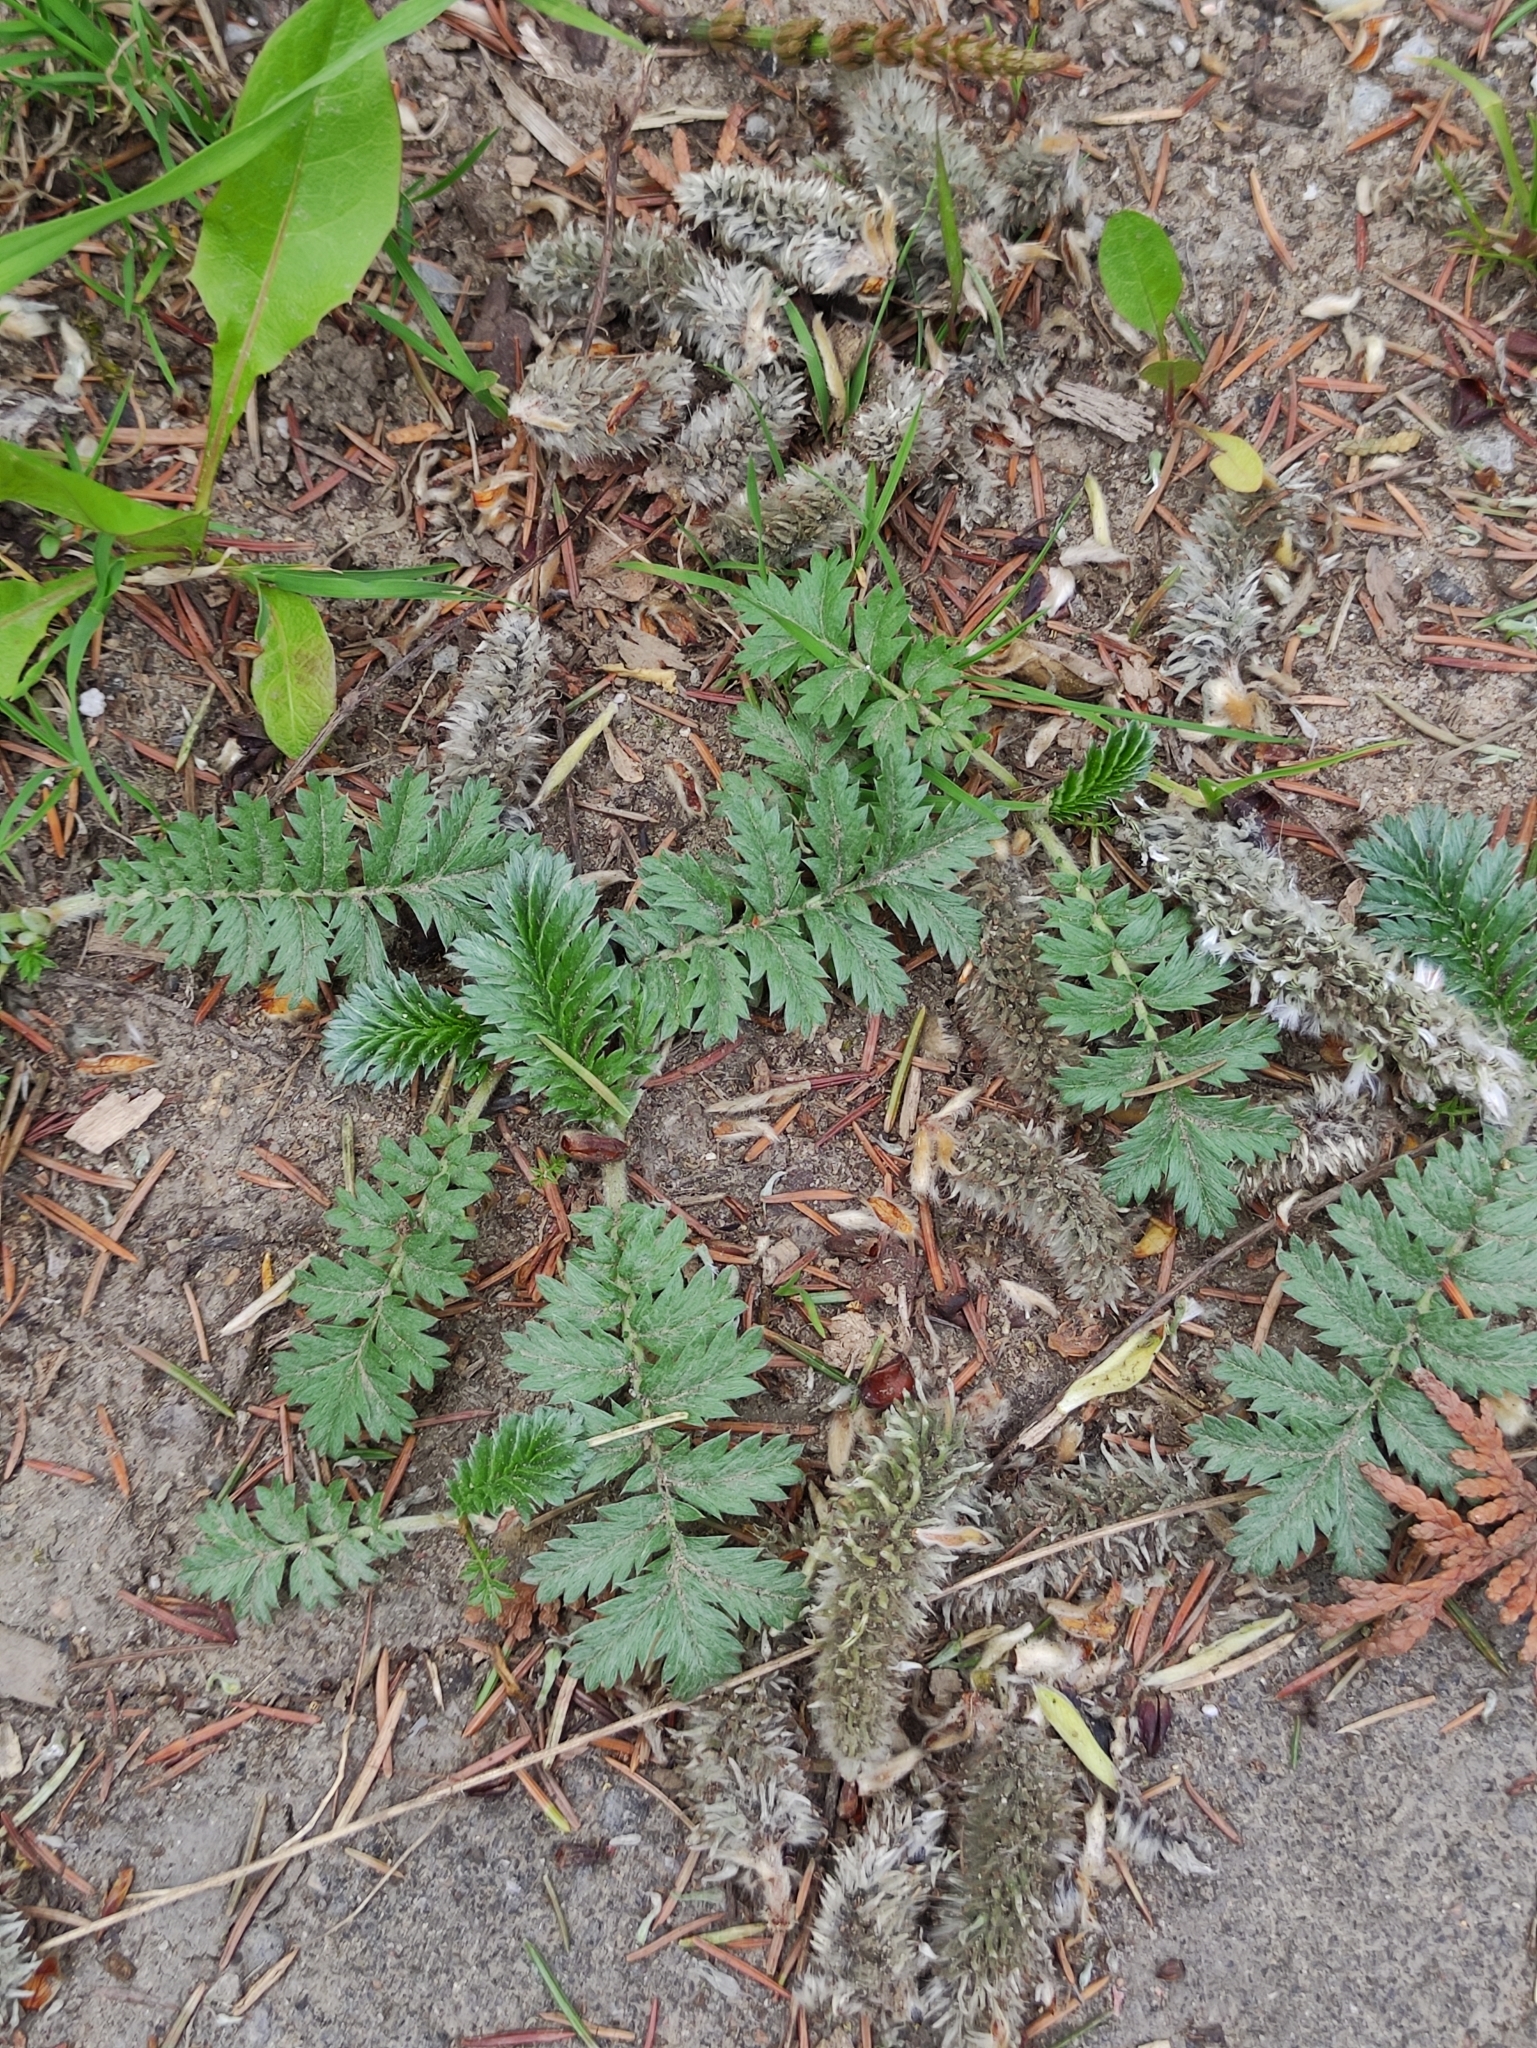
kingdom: Plantae
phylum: Tracheophyta
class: Magnoliopsida
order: Rosales
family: Rosaceae
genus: Argentina
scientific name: Argentina anserina
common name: Common silverweed
